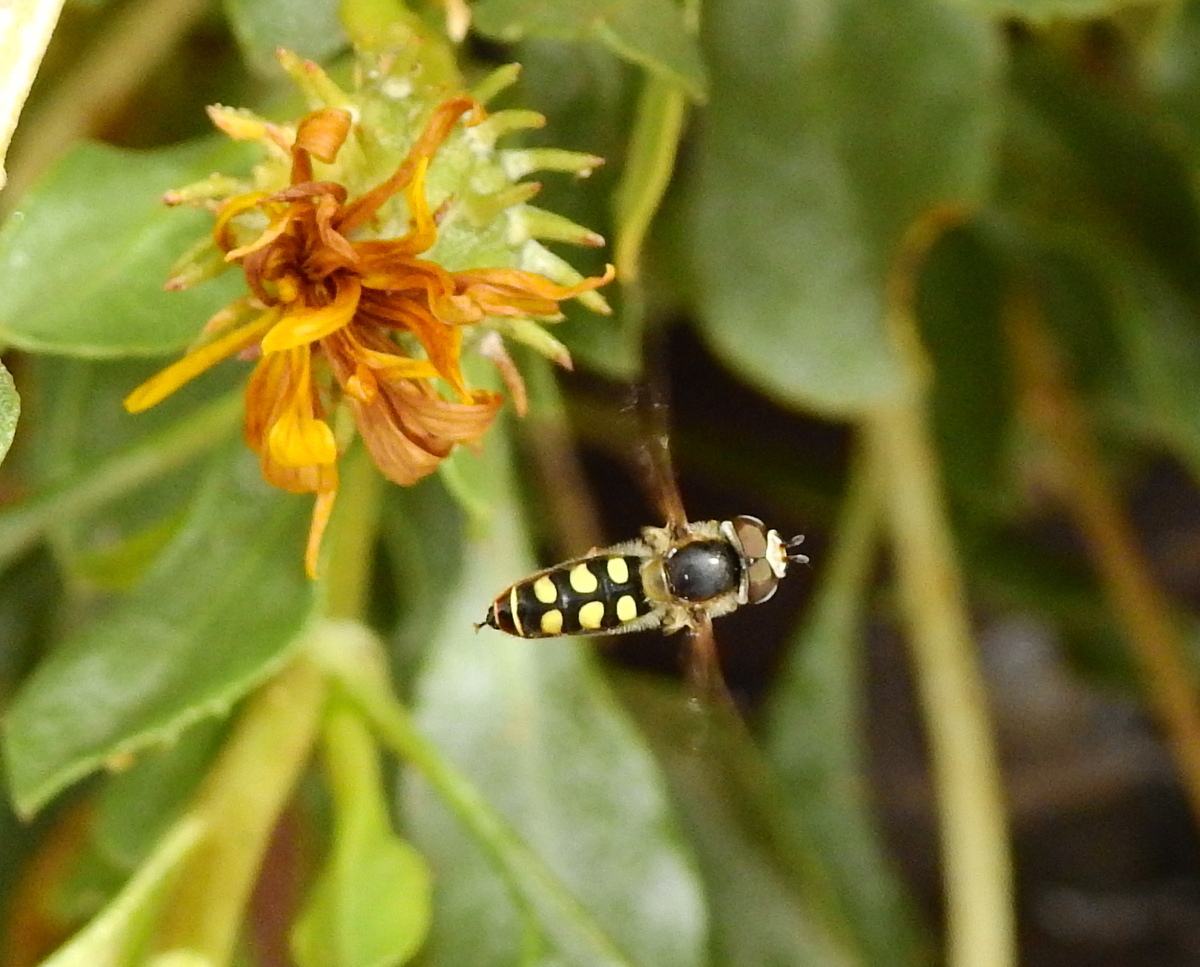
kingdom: Animalia
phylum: Arthropoda
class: Insecta
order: Diptera
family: Syrphidae
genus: Austroscaeva
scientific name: Austroscaeva occidentalis
